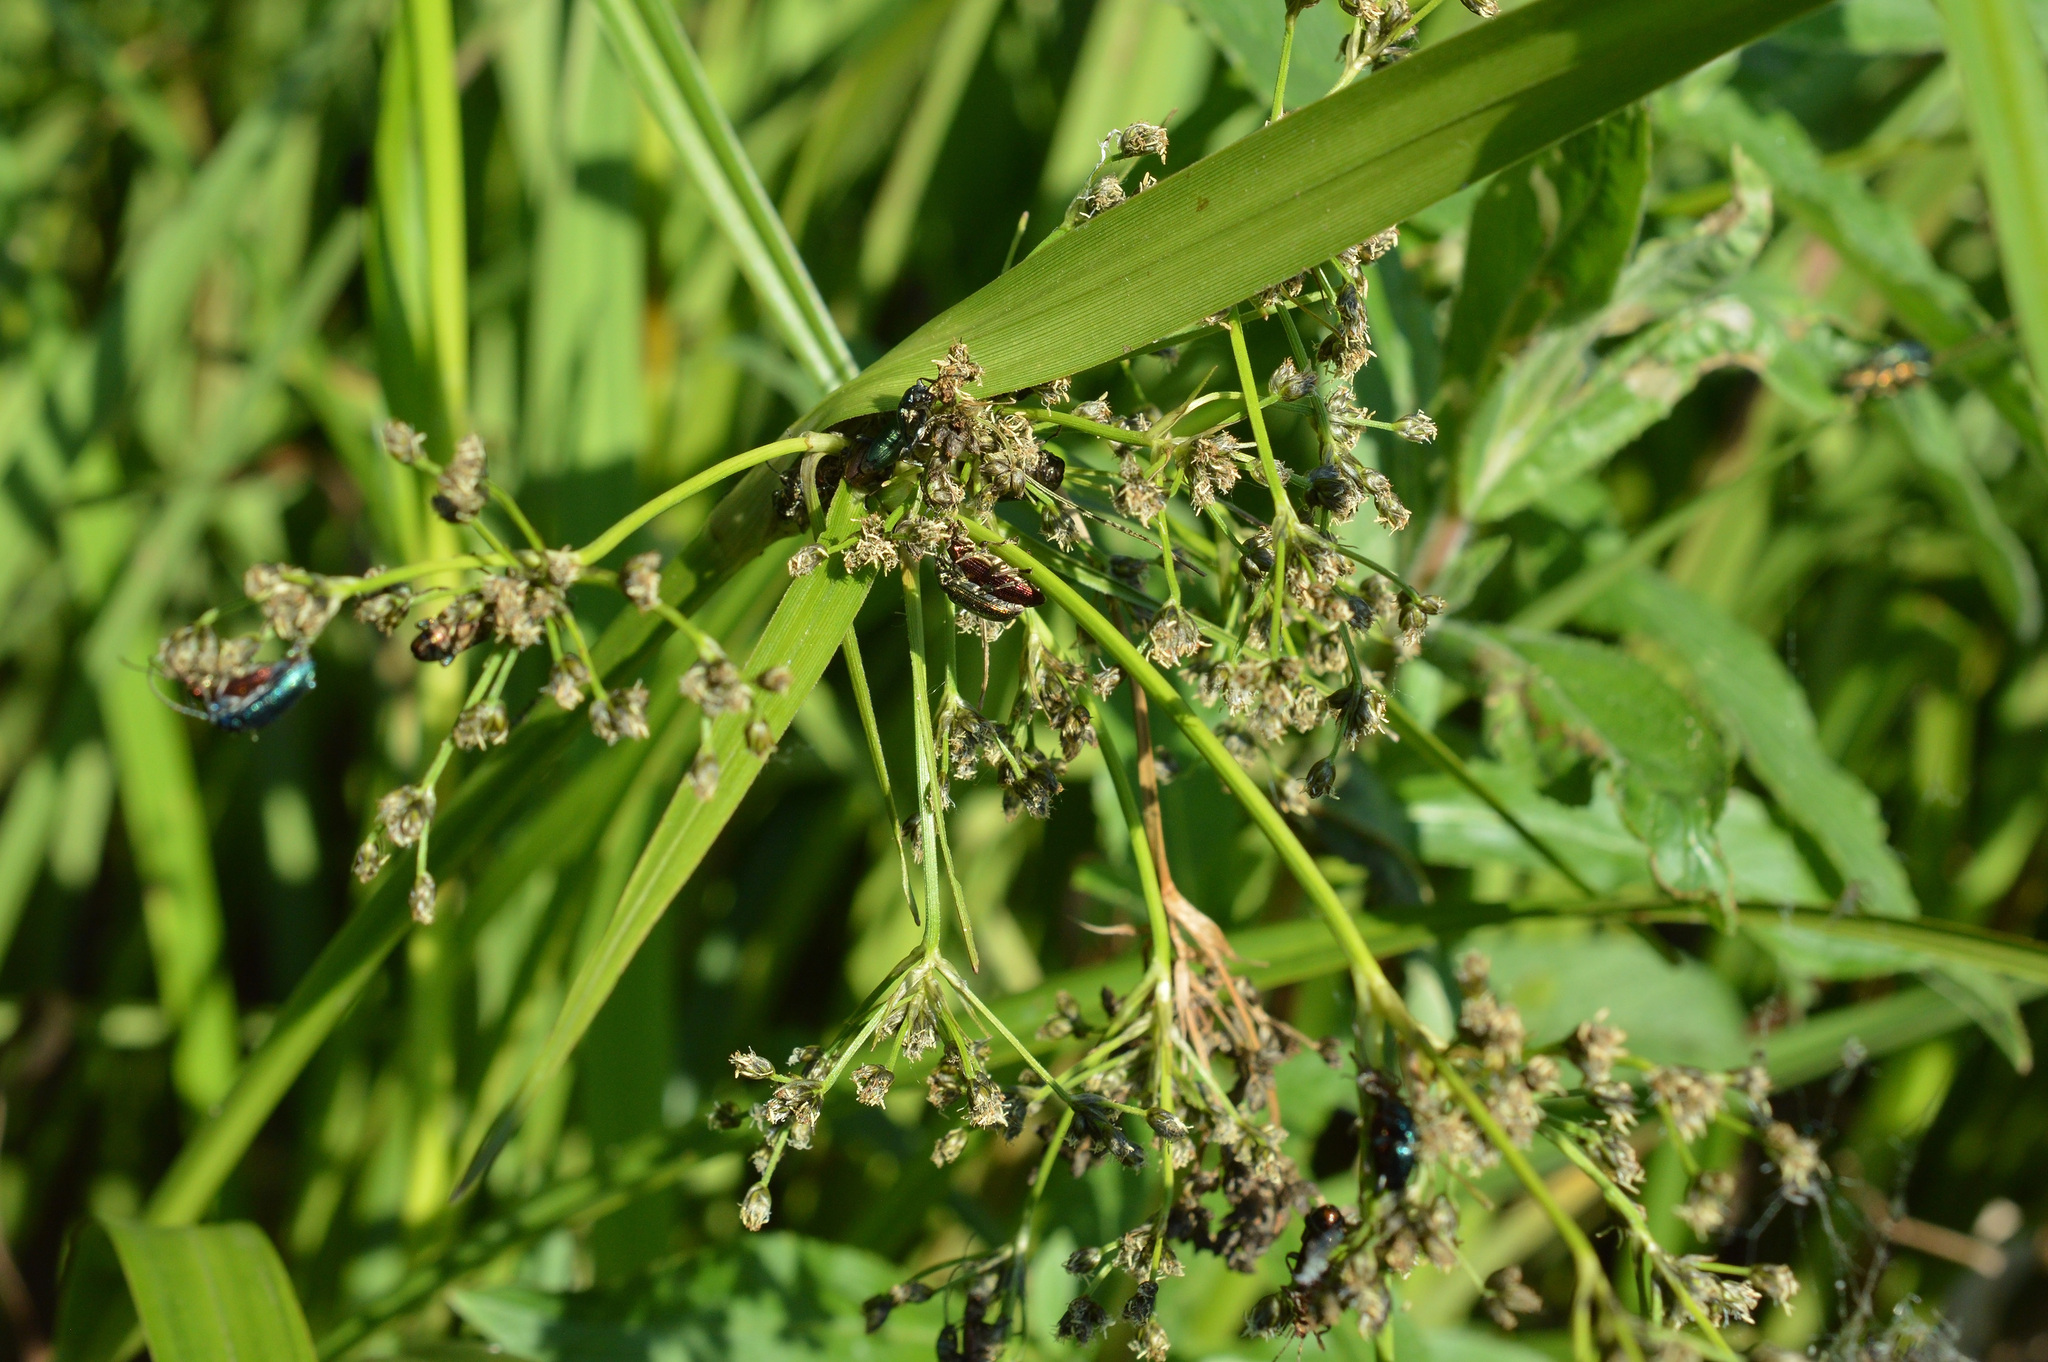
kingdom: Animalia
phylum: Arthropoda
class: Insecta
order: Coleoptera
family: Chrysomelidae
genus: Plateumaris
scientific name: Plateumaris sericea
